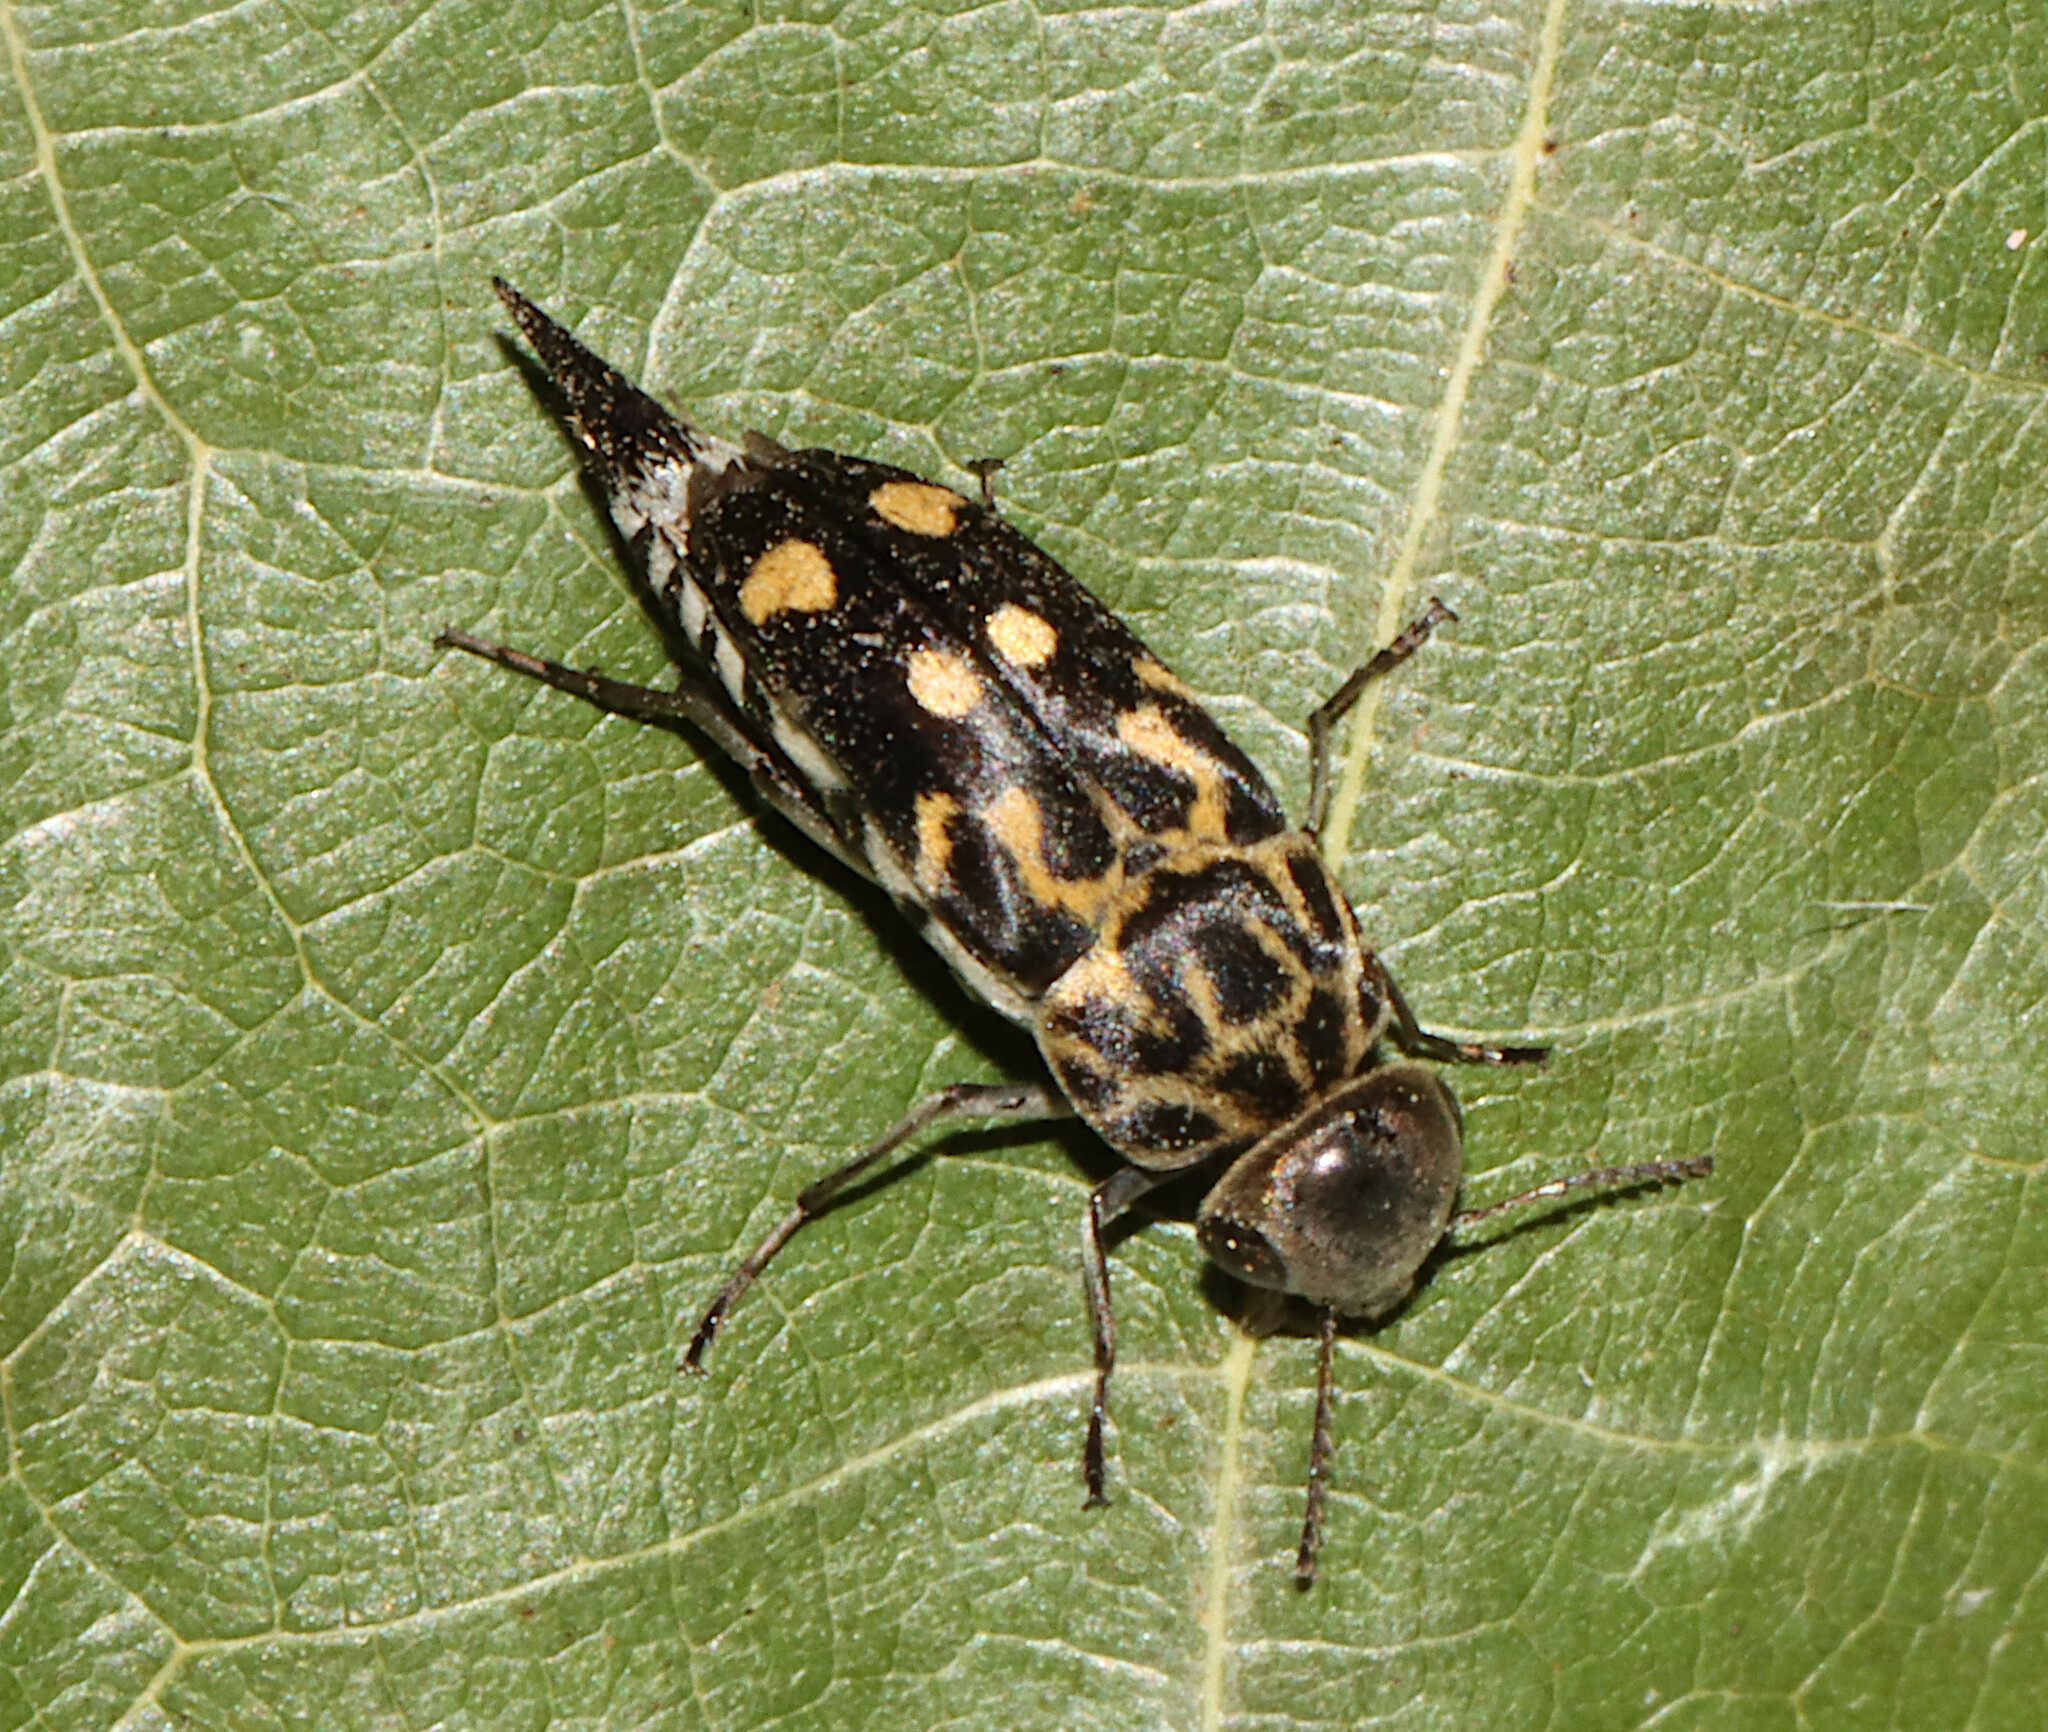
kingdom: Animalia
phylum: Arthropoda
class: Insecta
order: Coleoptera
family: Mordellidae
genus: Hoshihananomia
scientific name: Hoshihananomia octopunctata
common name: Eight-spotted tumbling flower beetle
